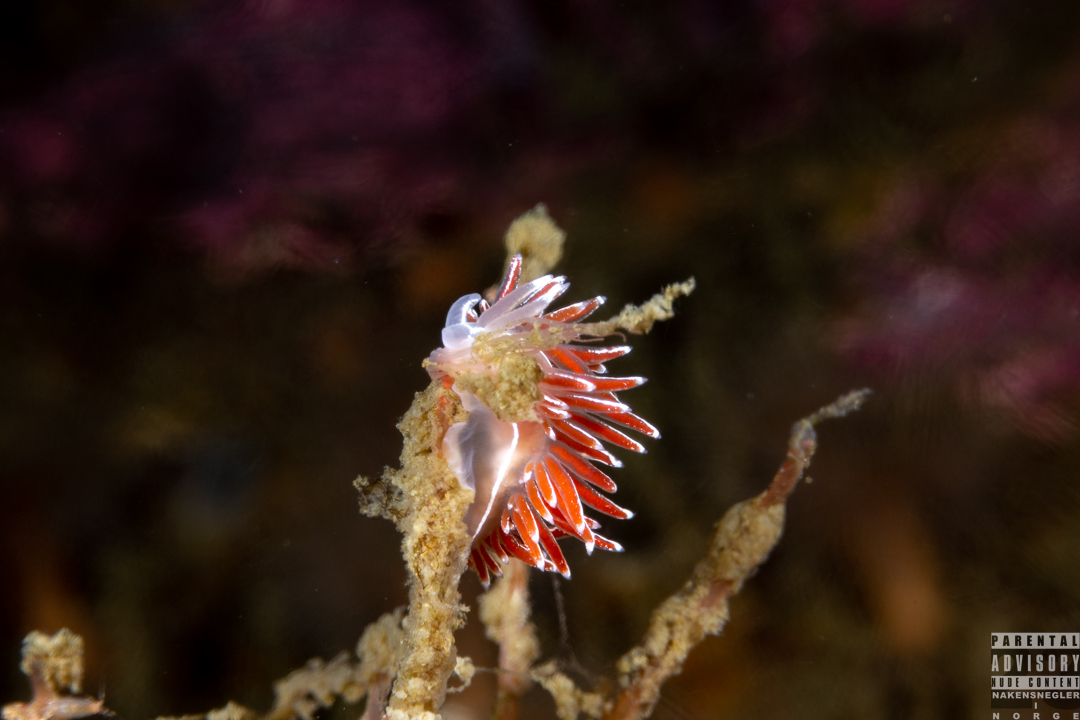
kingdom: Animalia
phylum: Mollusca
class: Gastropoda
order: Nudibranchia
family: Coryphellidae
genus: Coryphella
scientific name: Coryphella lineata
